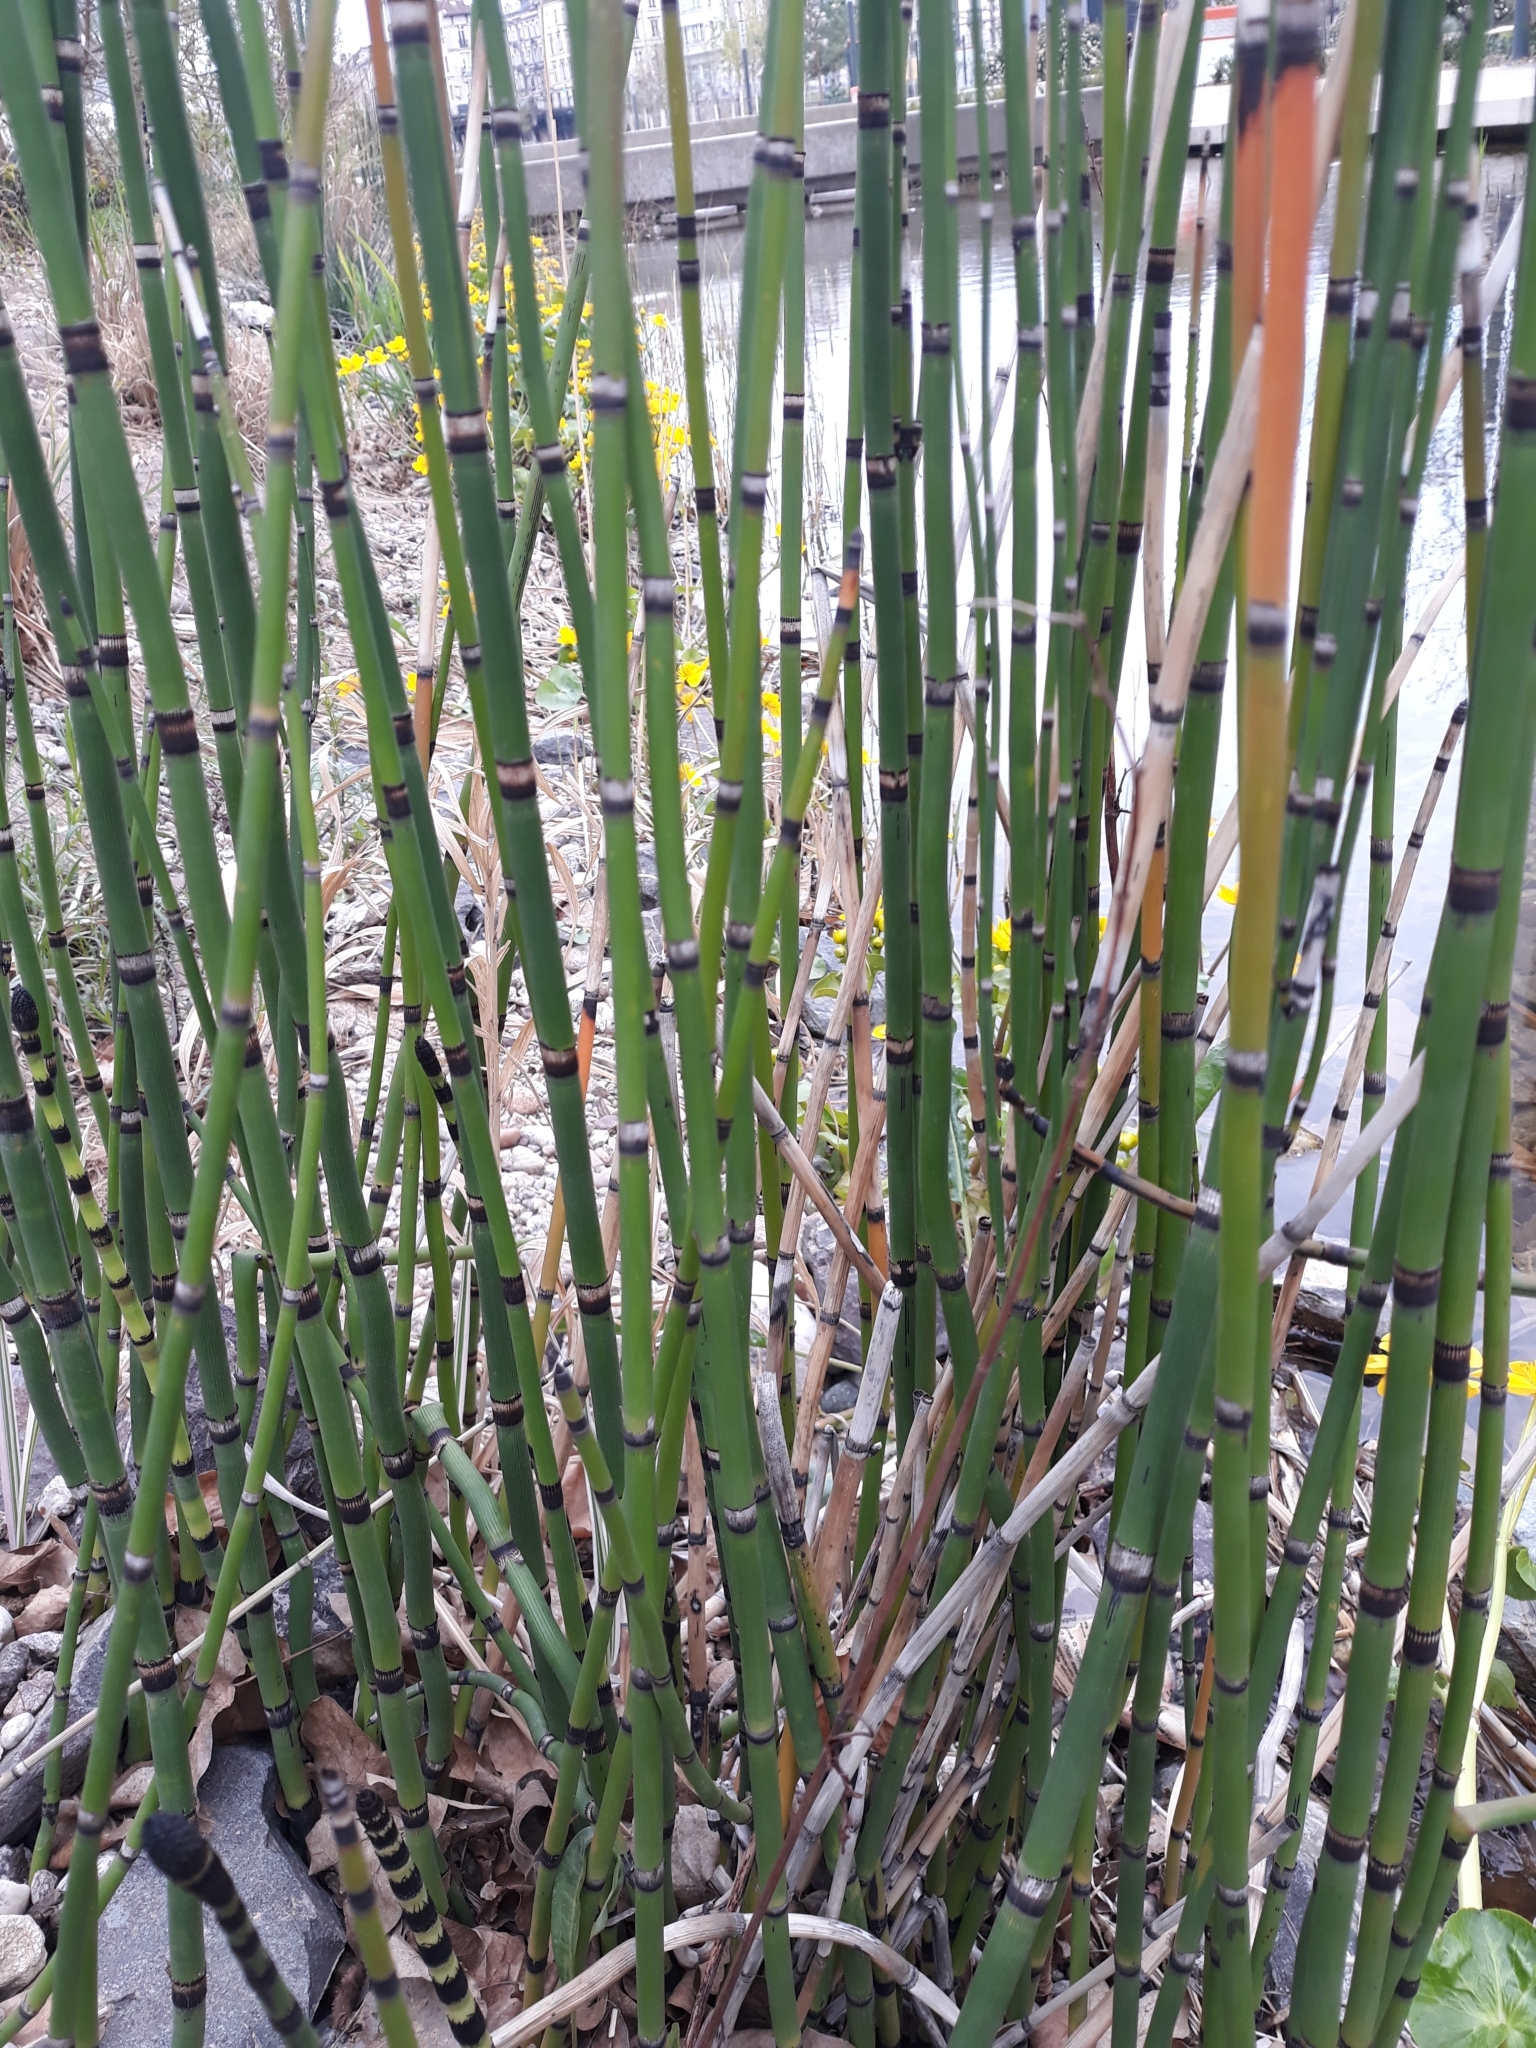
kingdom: Plantae
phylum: Tracheophyta
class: Polypodiopsida
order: Equisetales
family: Equisetaceae
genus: Equisetum
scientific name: Equisetum praealtum
